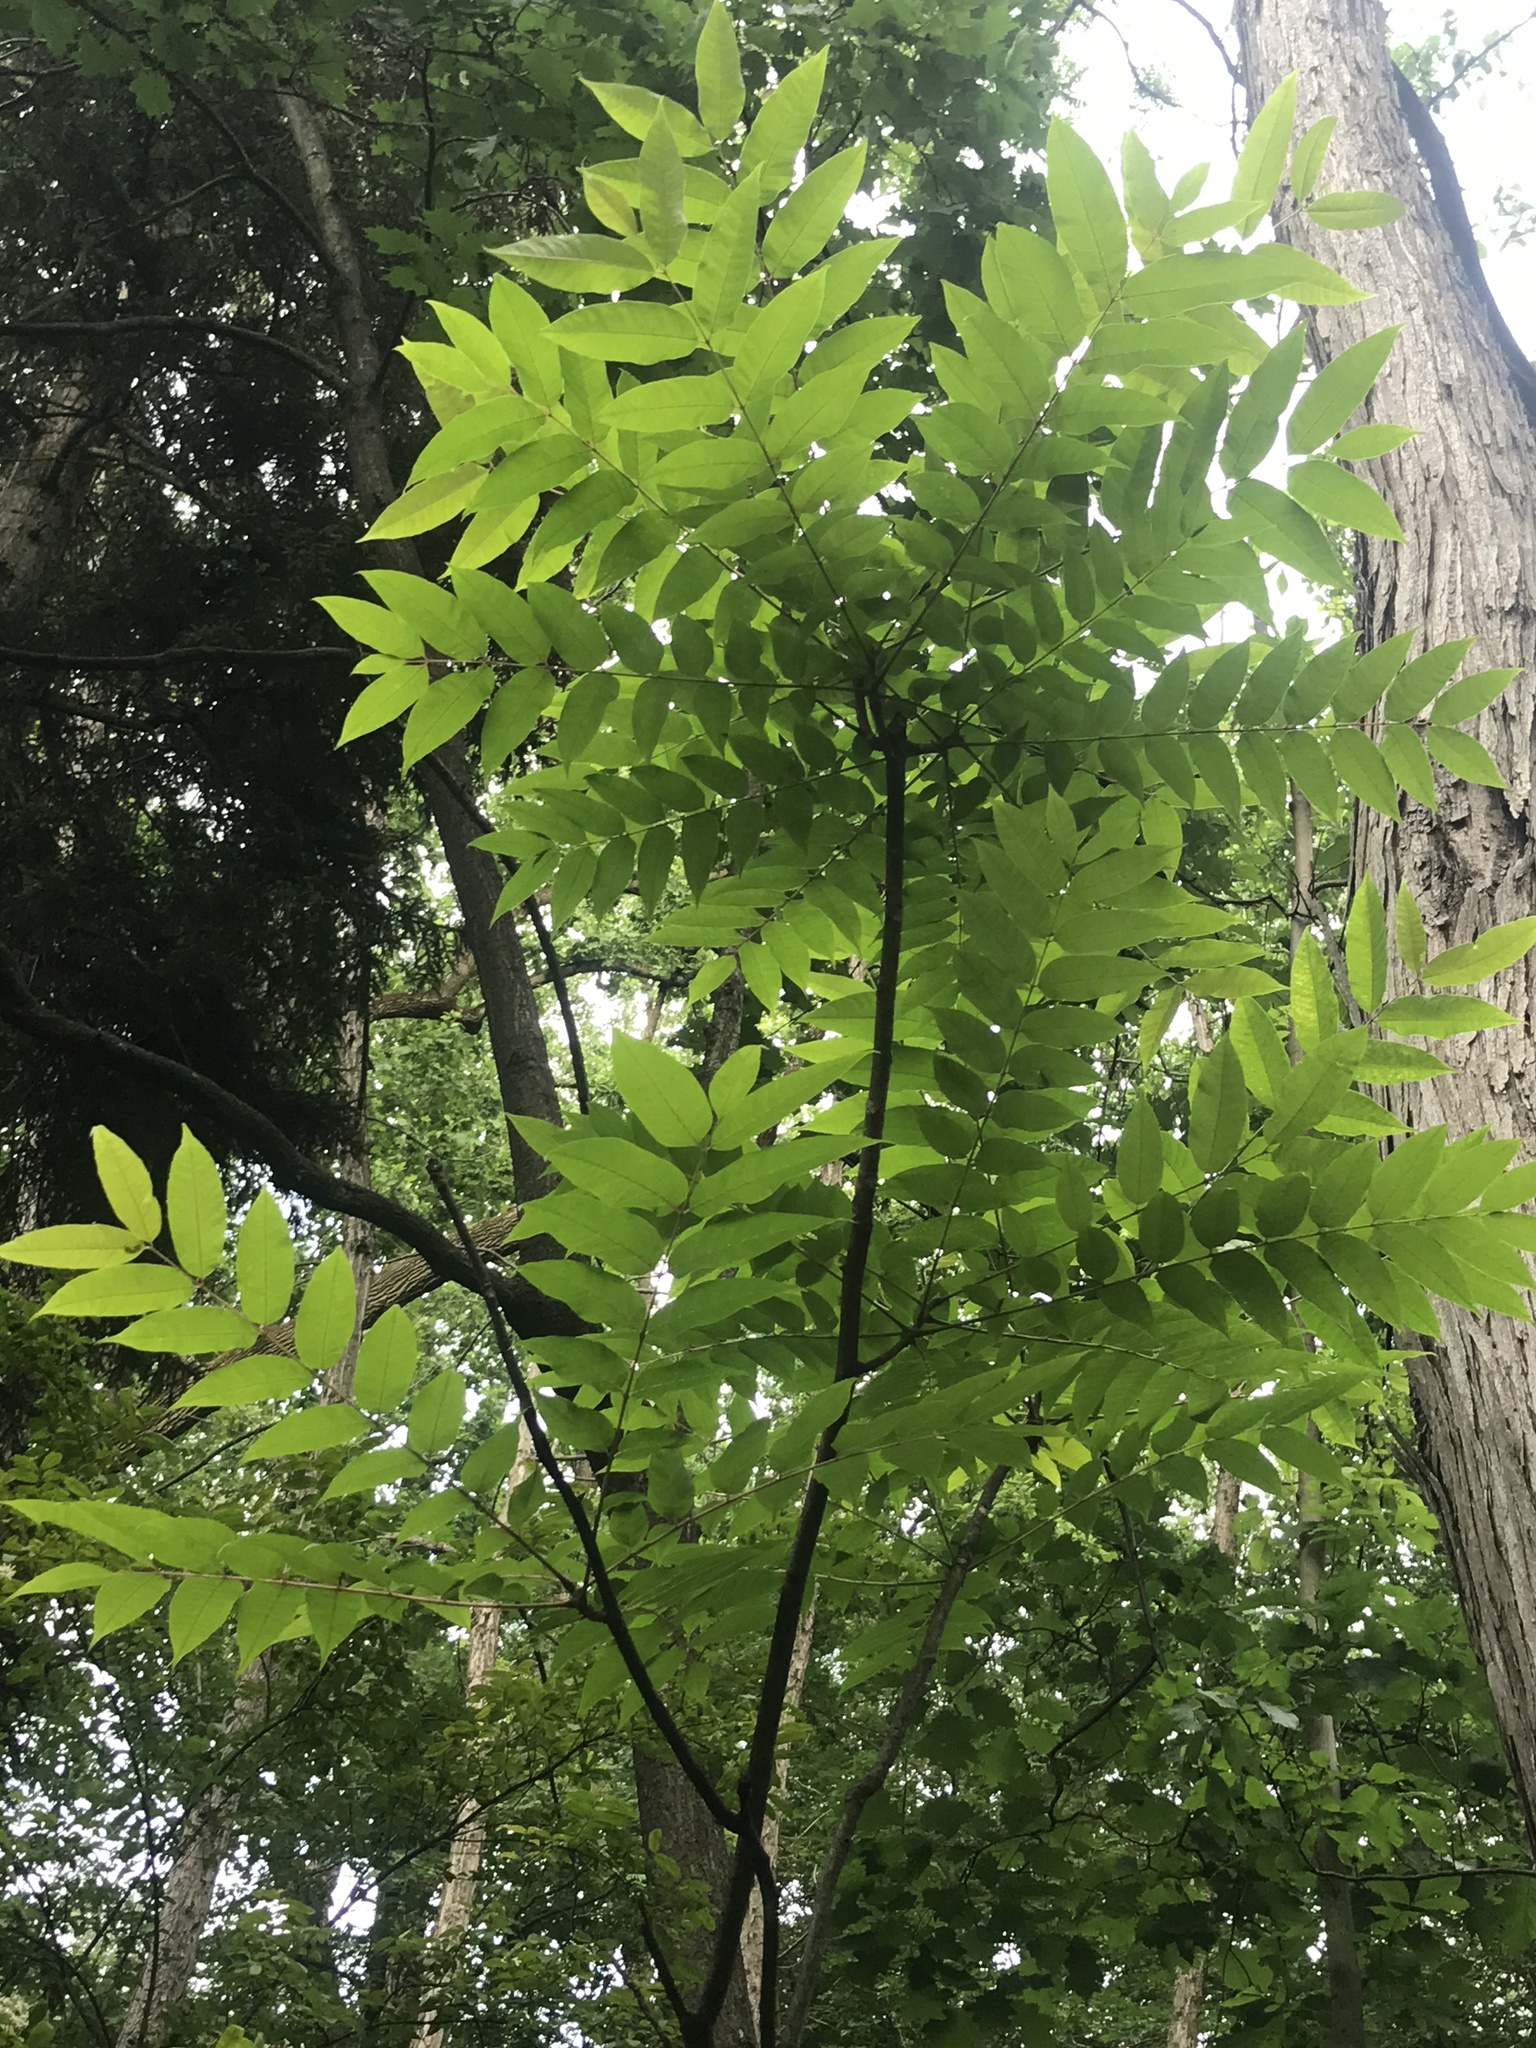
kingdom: Plantae
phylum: Tracheophyta
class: Magnoliopsida
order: Sapindales
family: Meliaceae
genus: Toona
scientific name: Toona sinensis
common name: Red toon
